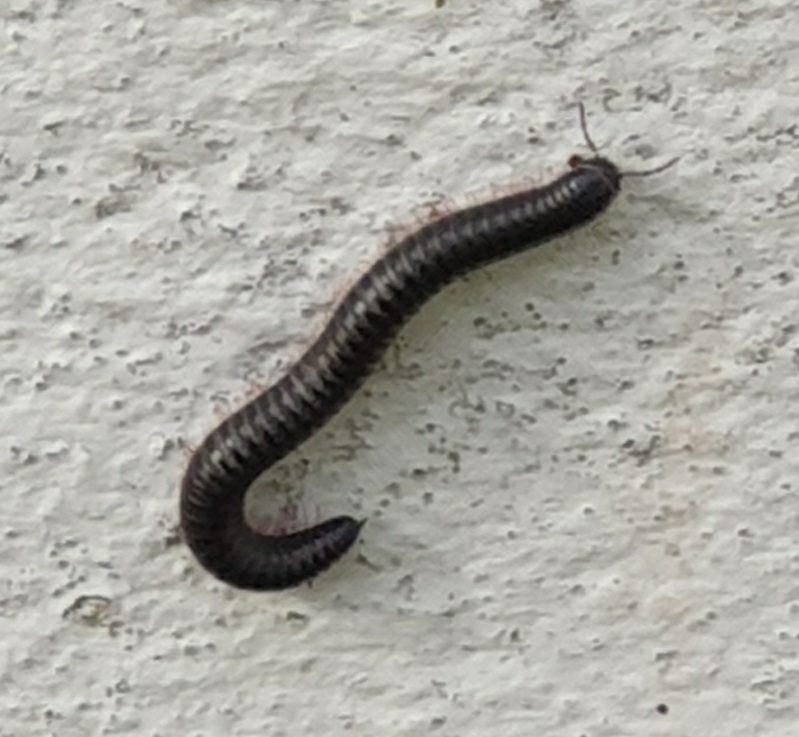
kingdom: Animalia
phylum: Arthropoda
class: Diplopoda
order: Julida
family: Julidae
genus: Ommatoiulus
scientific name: Ommatoiulus moreleti
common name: Portuguese millipede
